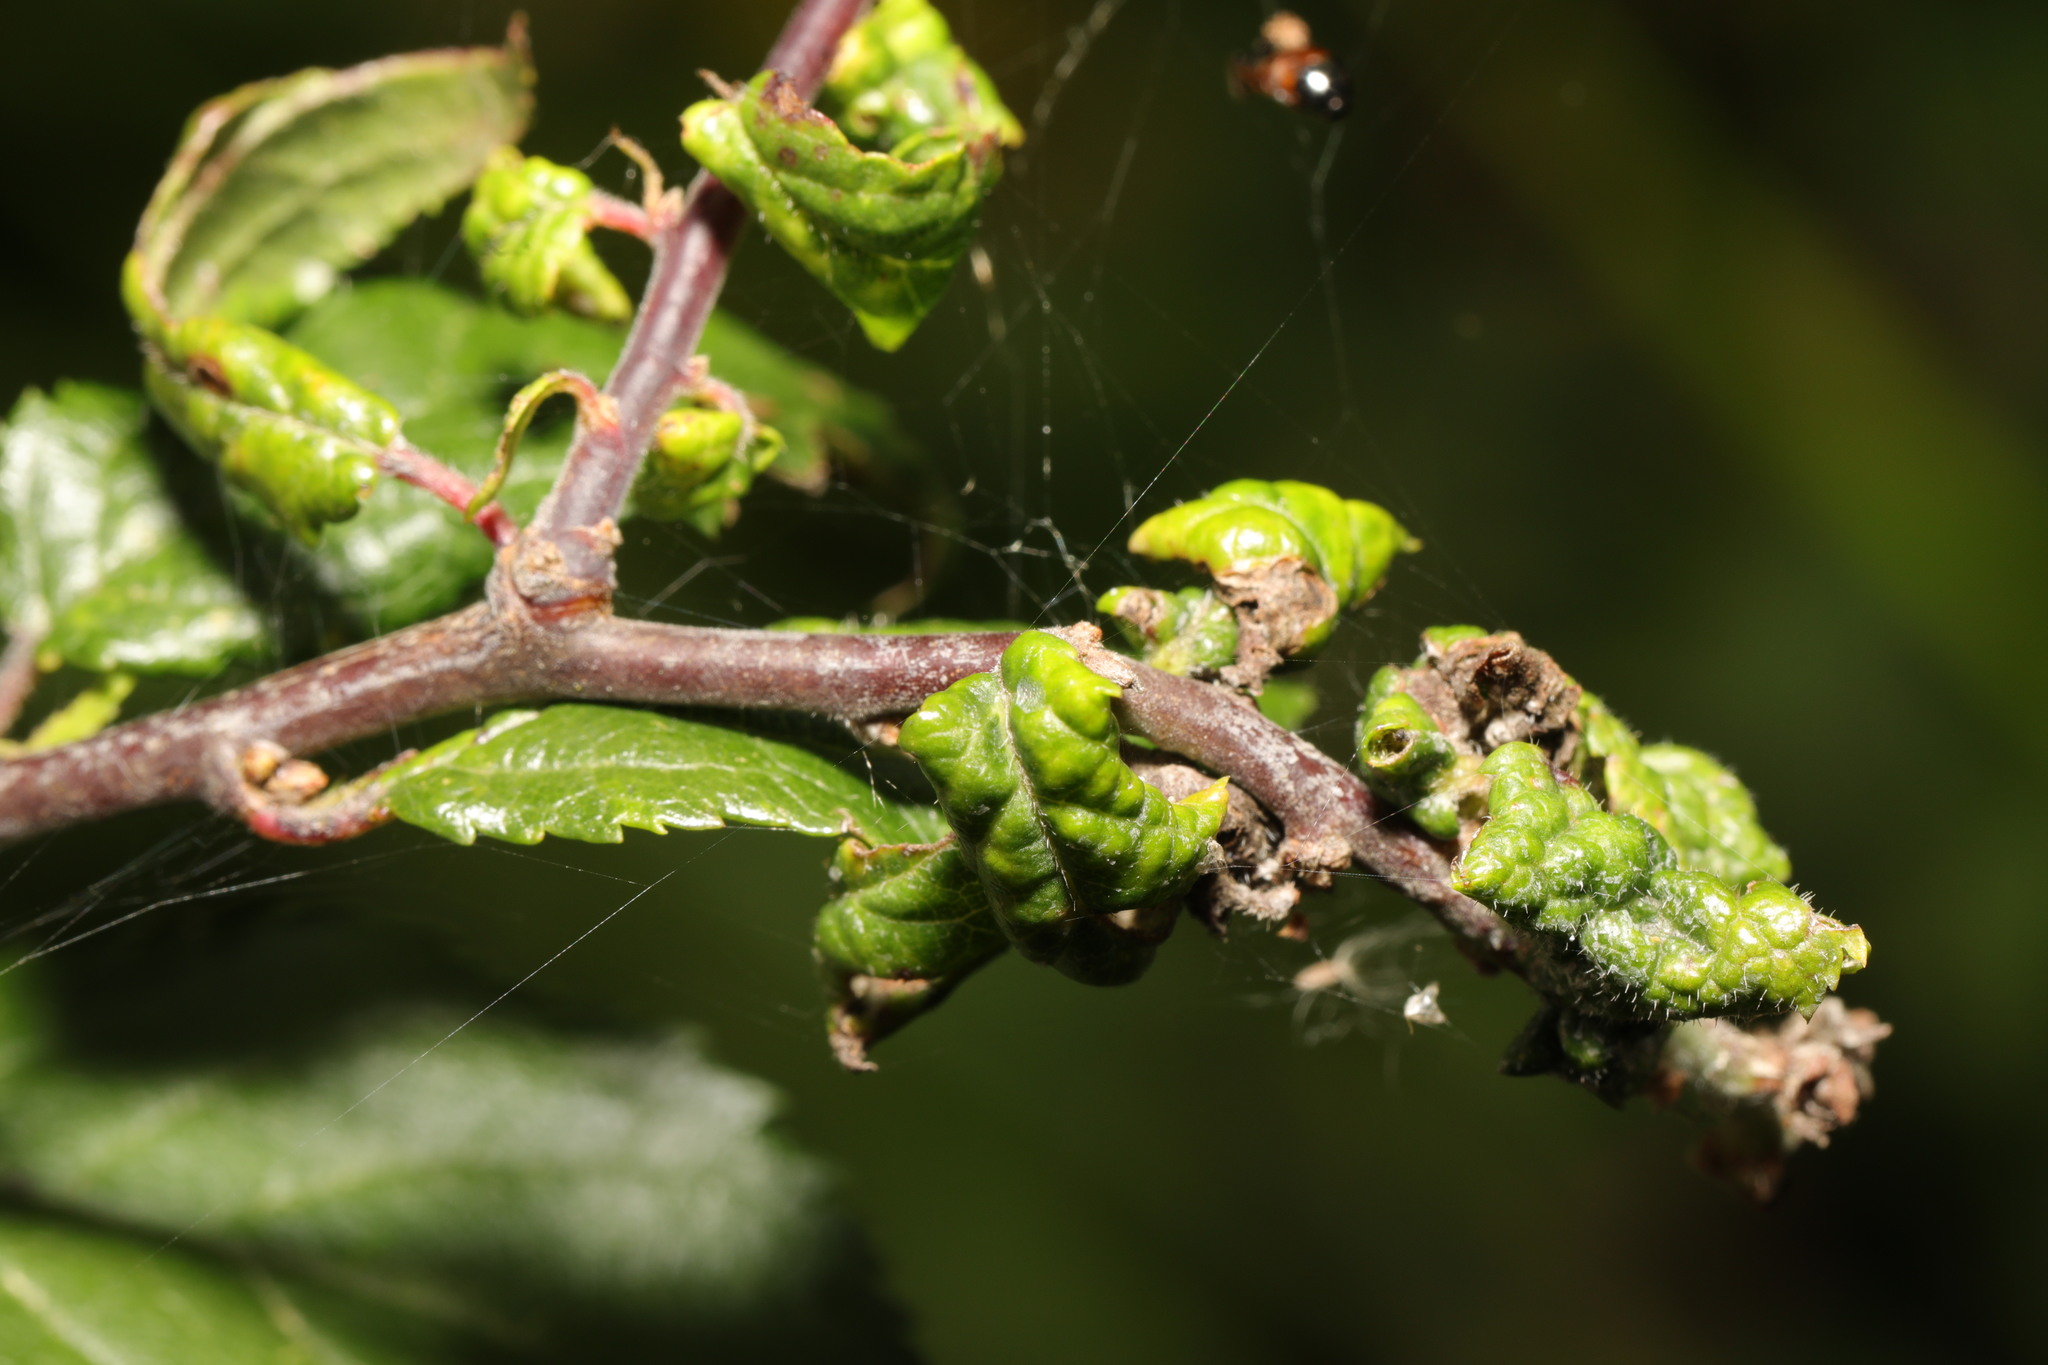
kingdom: Animalia
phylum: Arthropoda
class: Insecta
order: Hemiptera
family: Aphididae
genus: Hyalopterus
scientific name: Hyalopterus pruni
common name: Mealy plum aphid
